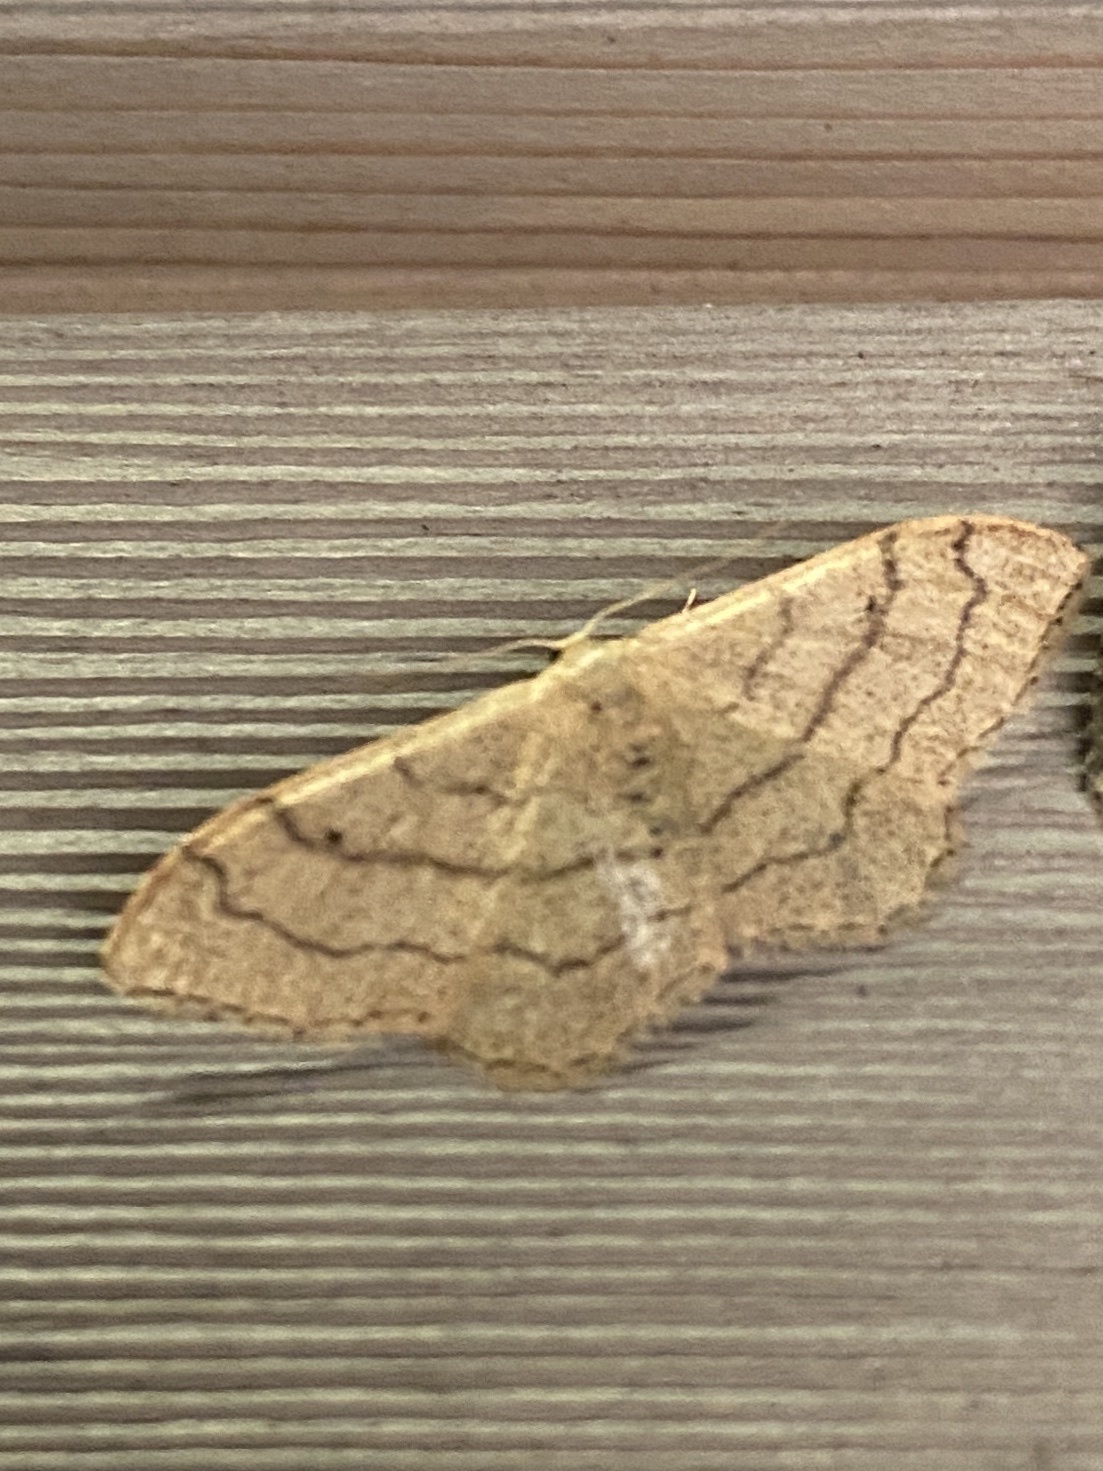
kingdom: Animalia
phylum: Arthropoda
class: Insecta
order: Lepidoptera
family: Geometridae
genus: Idaea
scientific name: Idaea aversata
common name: Riband wave
